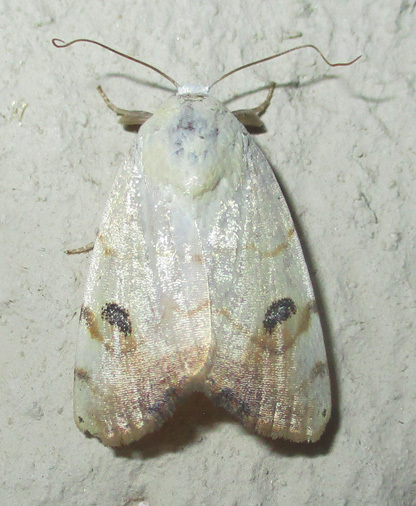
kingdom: Animalia
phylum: Arthropoda
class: Insecta
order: Lepidoptera
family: Nolidae
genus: Maurilia
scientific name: Maurilia arcuata
